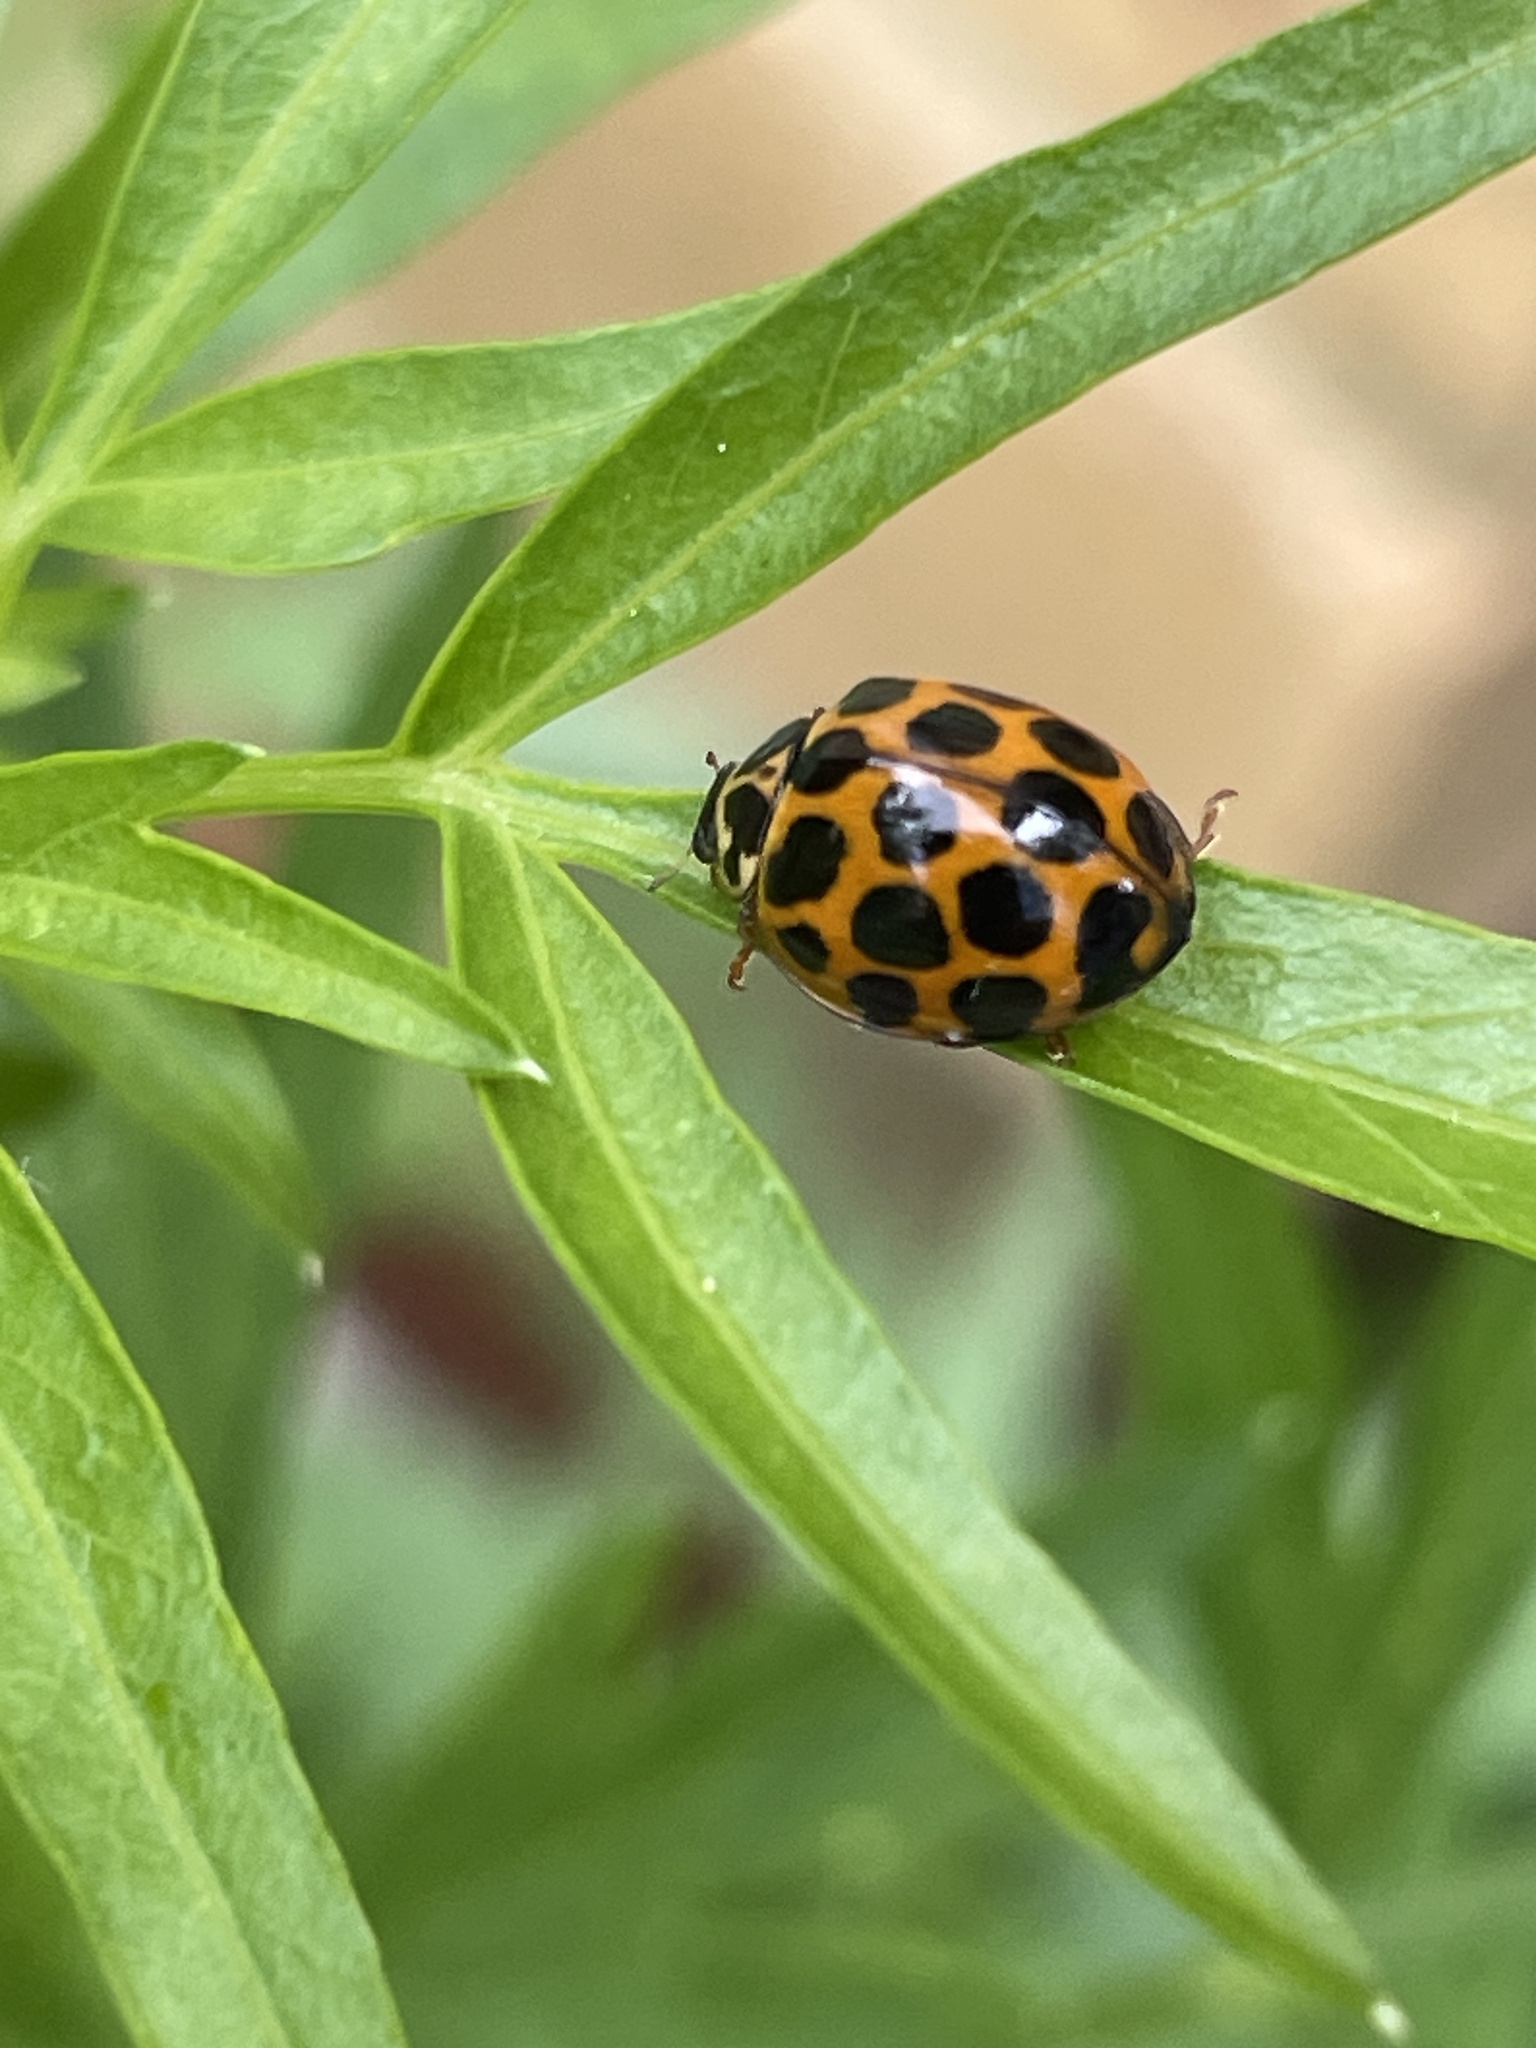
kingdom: Animalia
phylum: Arthropoda
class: Insecta
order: Coleoptera
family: Coccinellidae
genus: Harmonia
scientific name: Harmonia conformis
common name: Common spotted ladybird beetle
